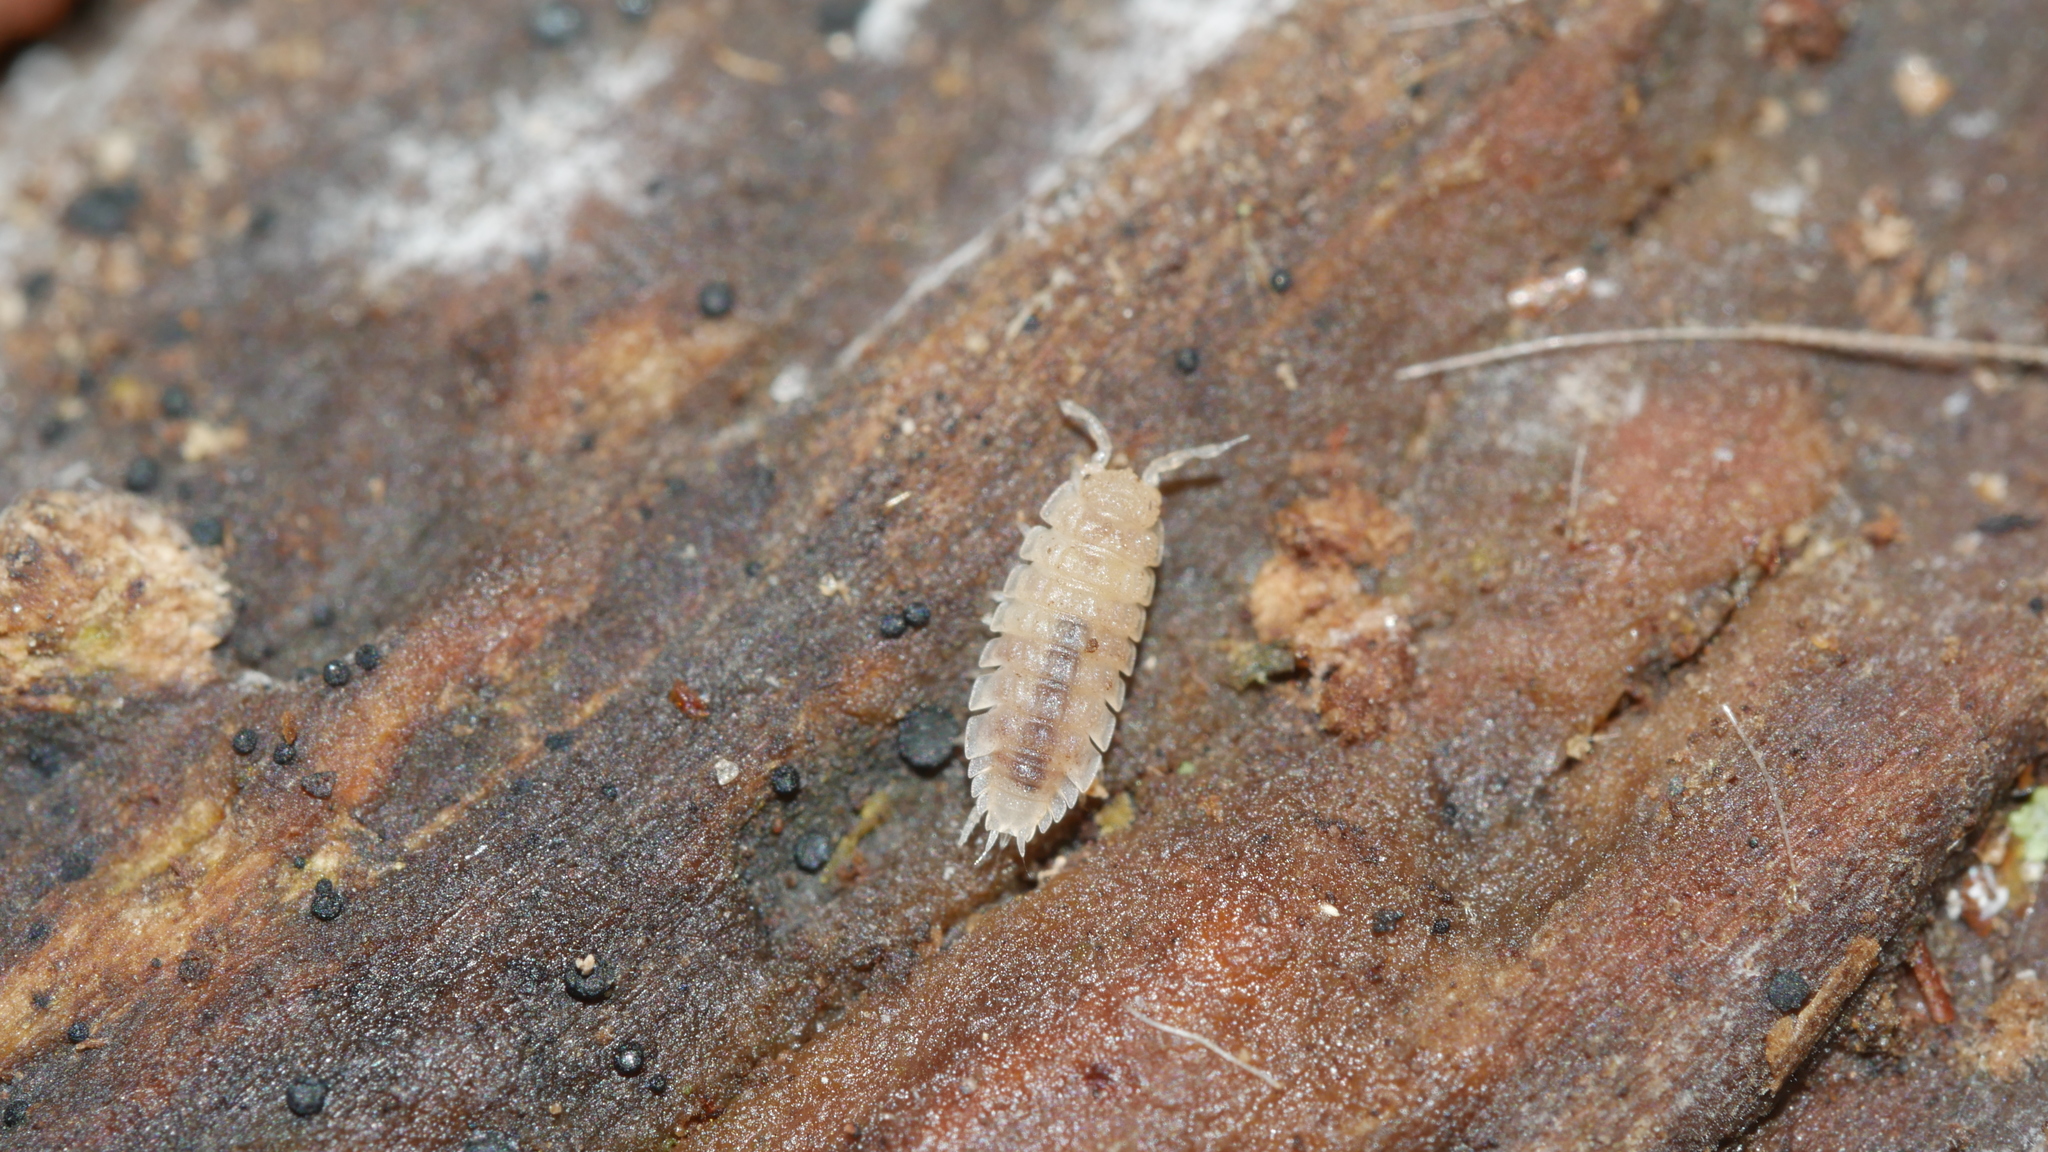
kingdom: Animalia
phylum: Arthropoda
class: Malacostraca
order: Isopoda
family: Trichoniscidae
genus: Haplophthalmus
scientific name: Haplophthalmus danicus
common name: Pillbug
